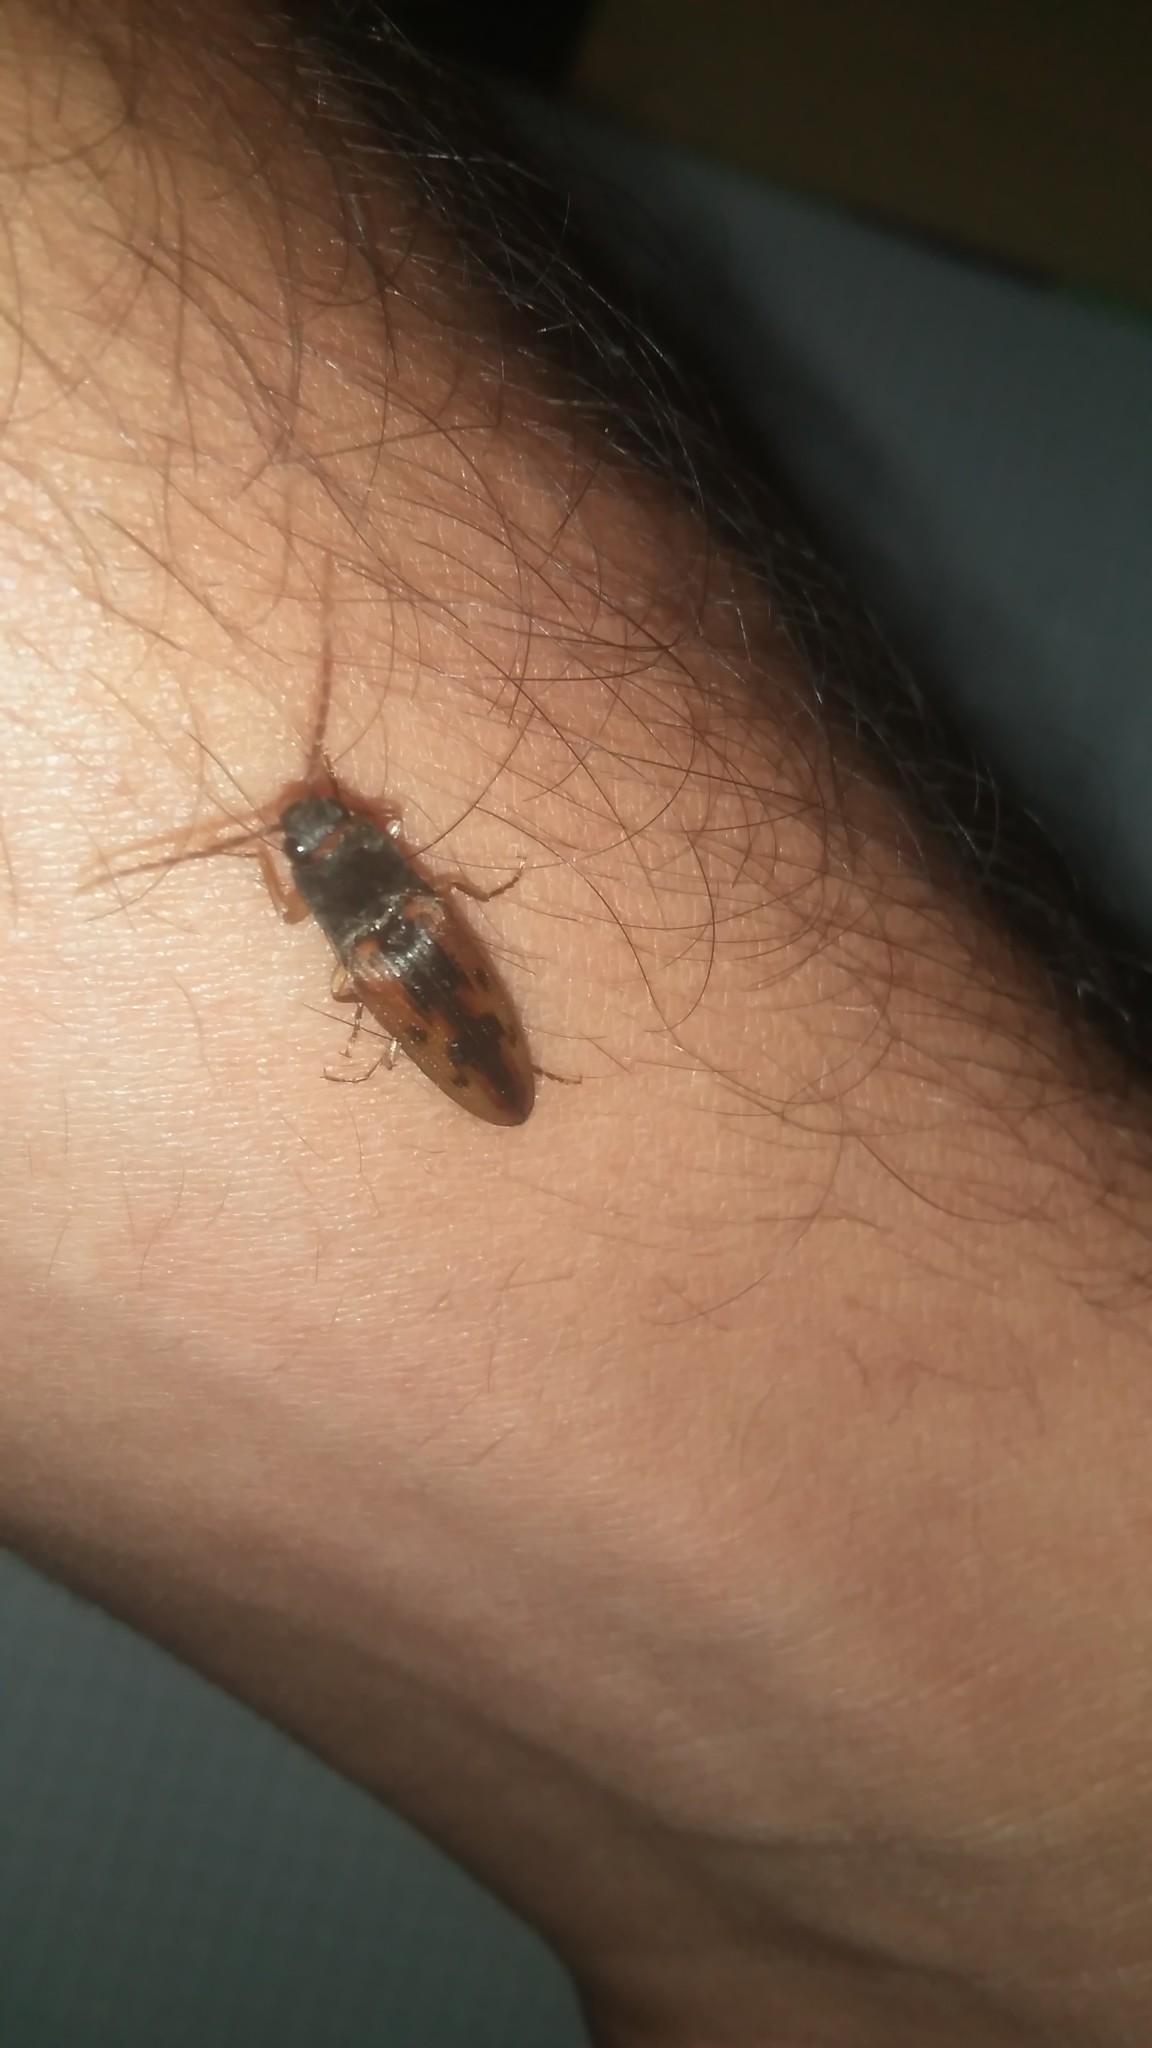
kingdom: Animalia
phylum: Arthropoda
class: Insecta
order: Coleoptera
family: Elateridae
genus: Monocrepidius
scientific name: Monocrepidius
